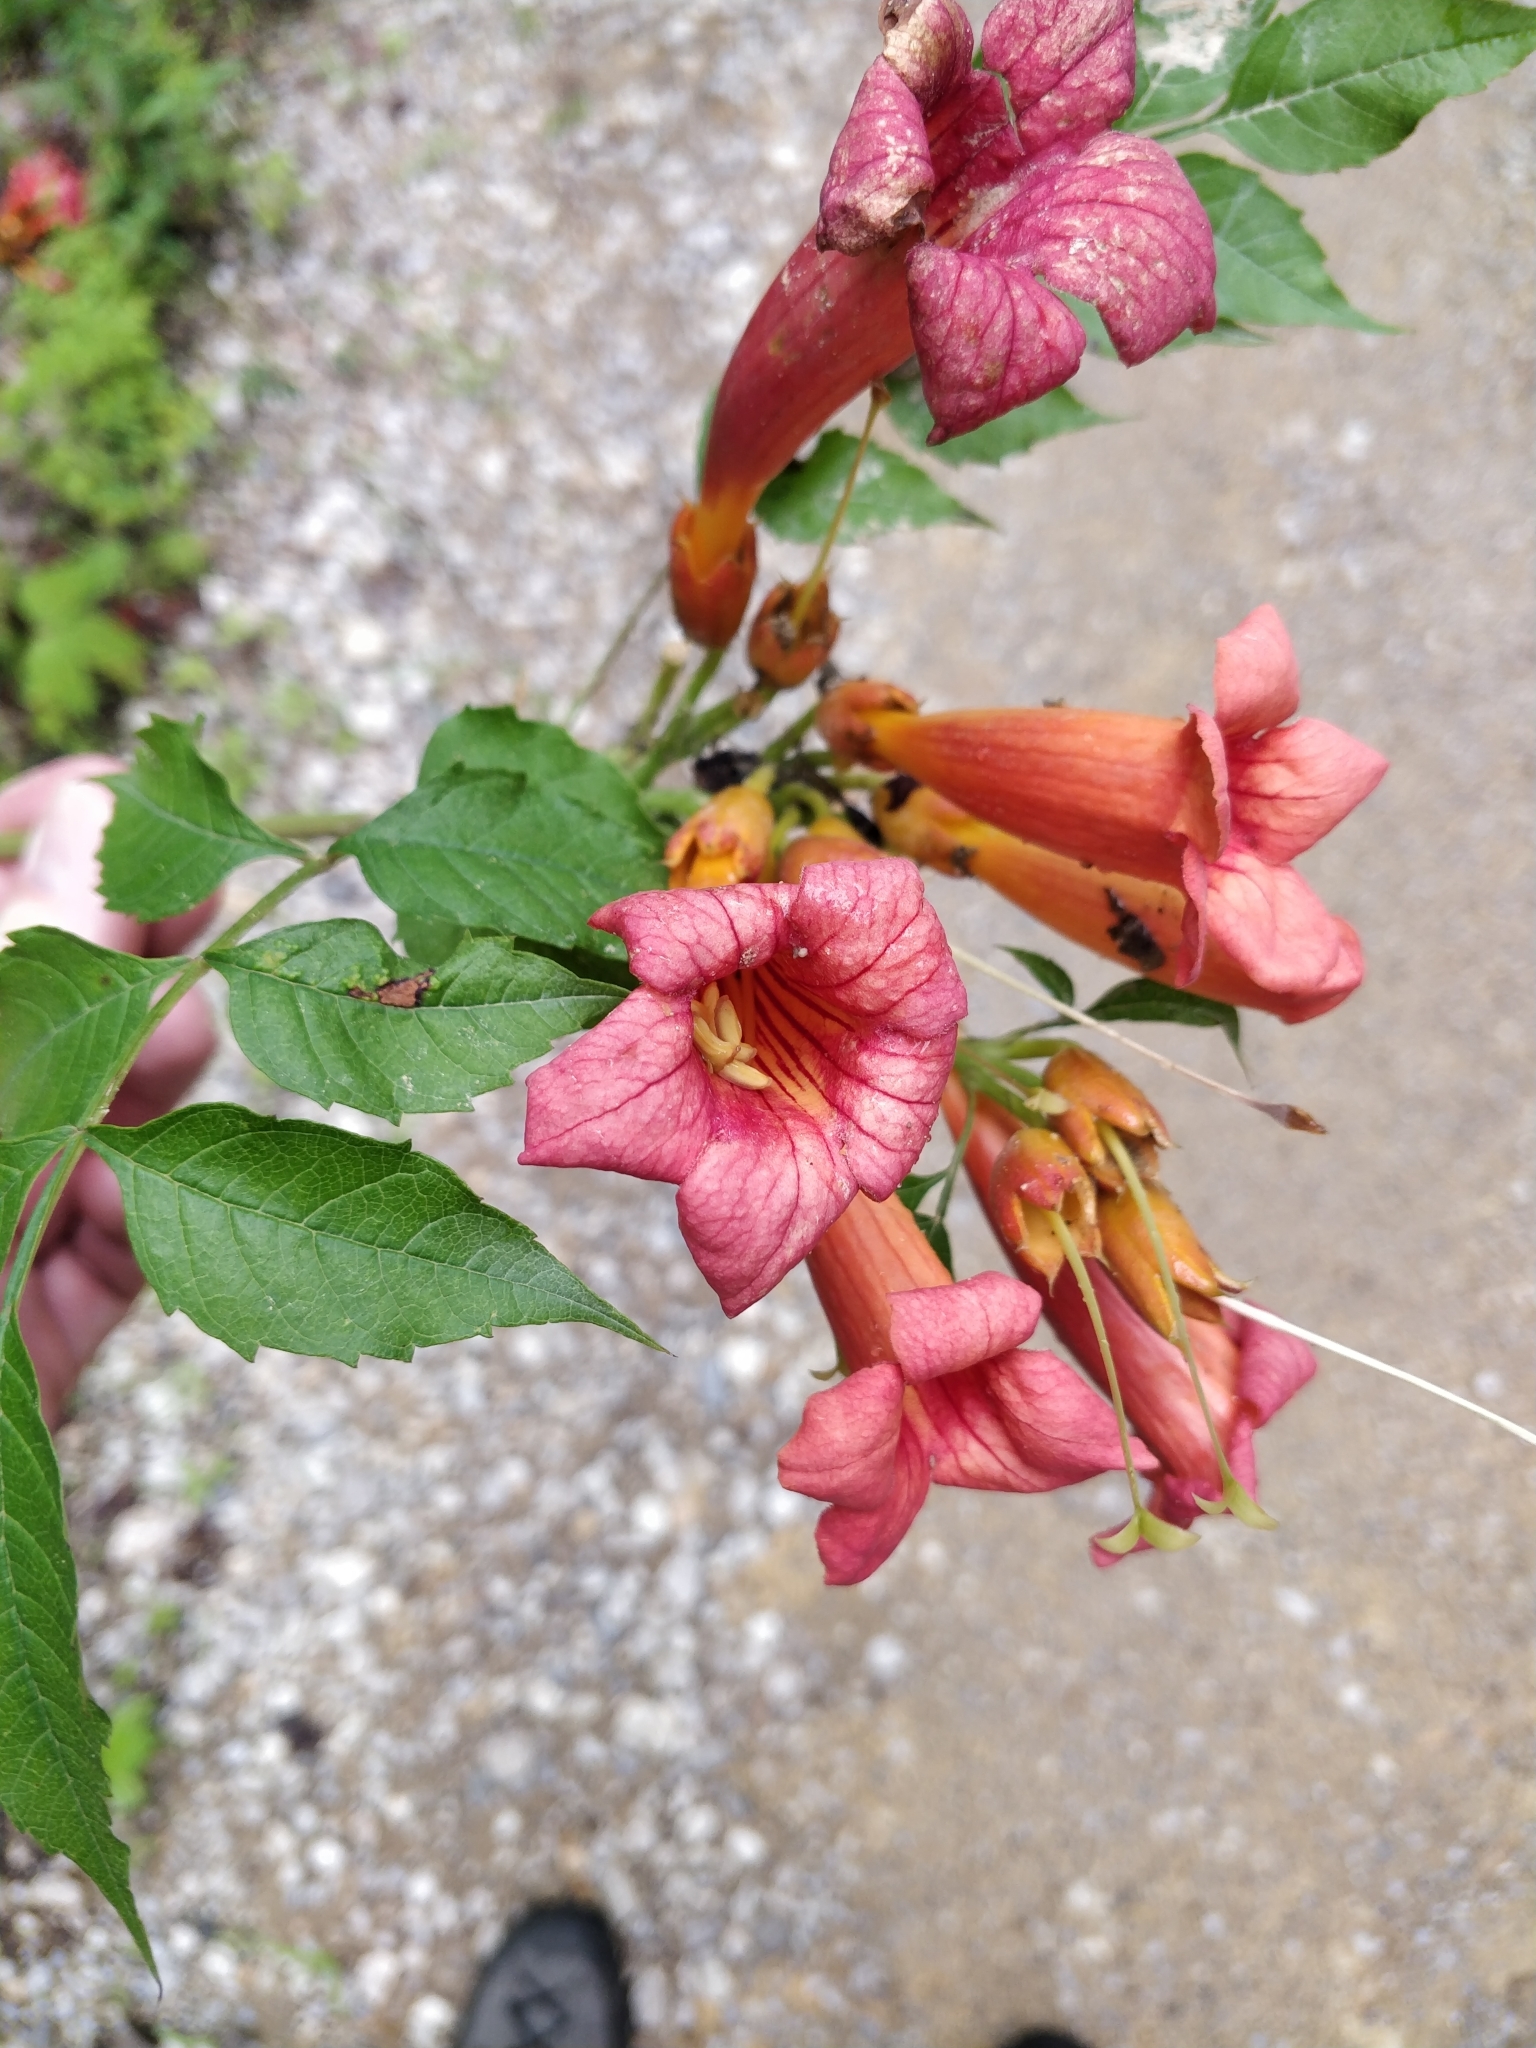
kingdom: Plantae
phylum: Tracheophyta
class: Magnoliopsida
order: Lamiales
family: Bignoniaceae
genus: Campsis
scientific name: Campsis radicans
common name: Trumpet-creeper
